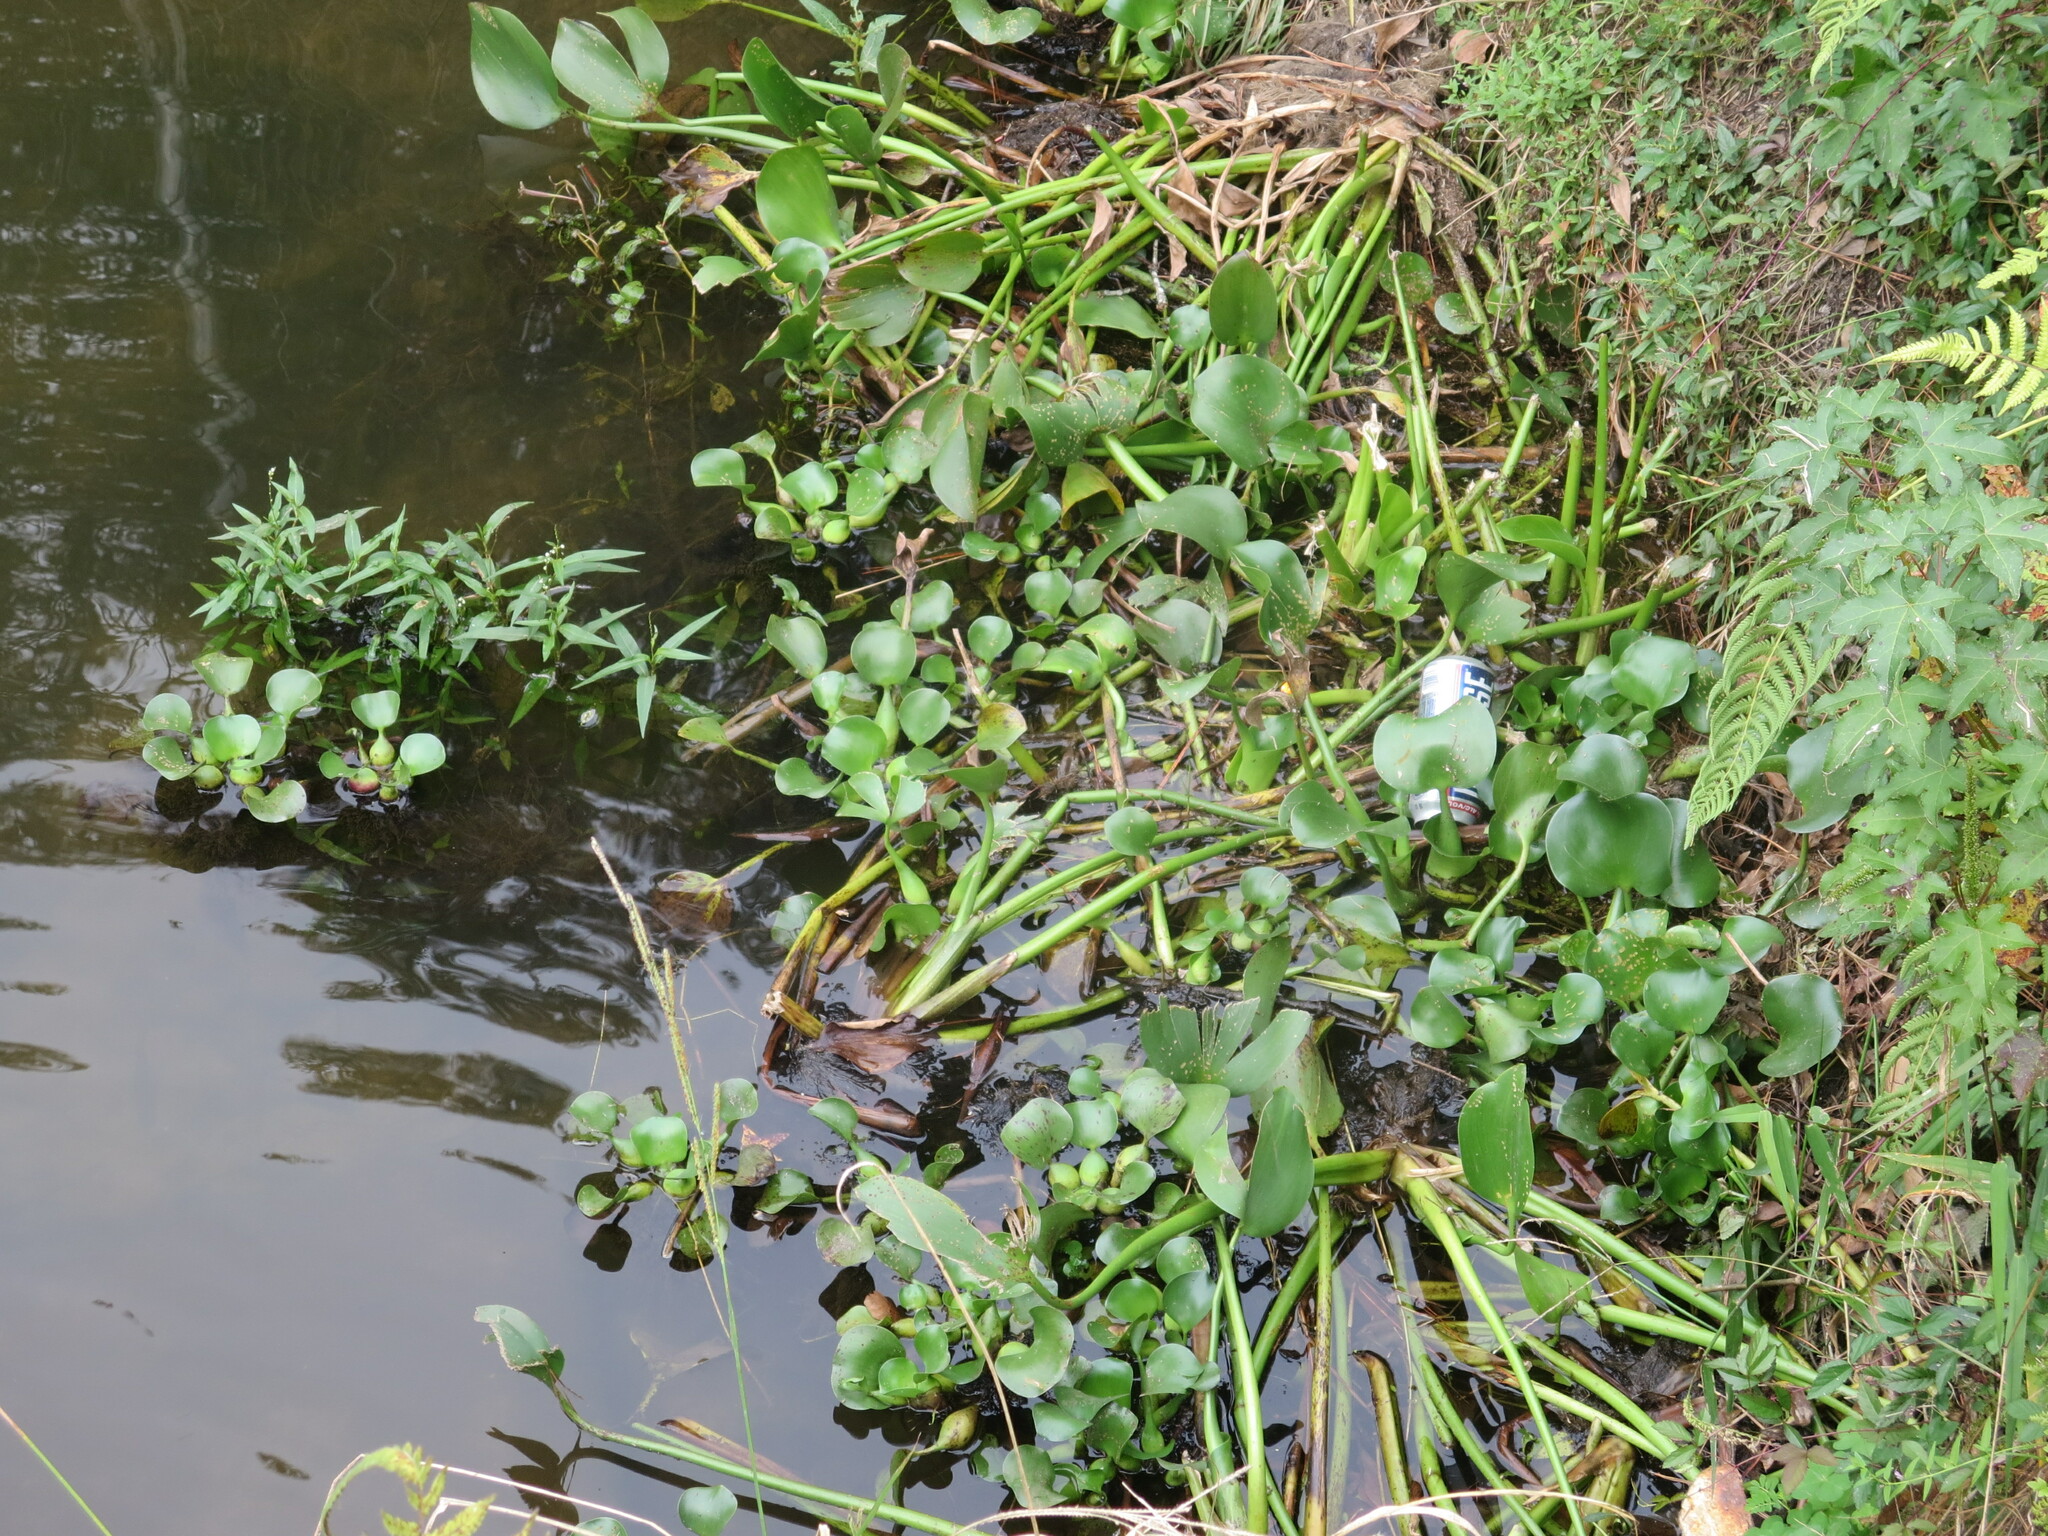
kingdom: Plantae
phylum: Tracheophyta
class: Liliopsida
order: Commelinales
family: Pontederiaceae
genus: Pontederia
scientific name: Pontederia crassipes
